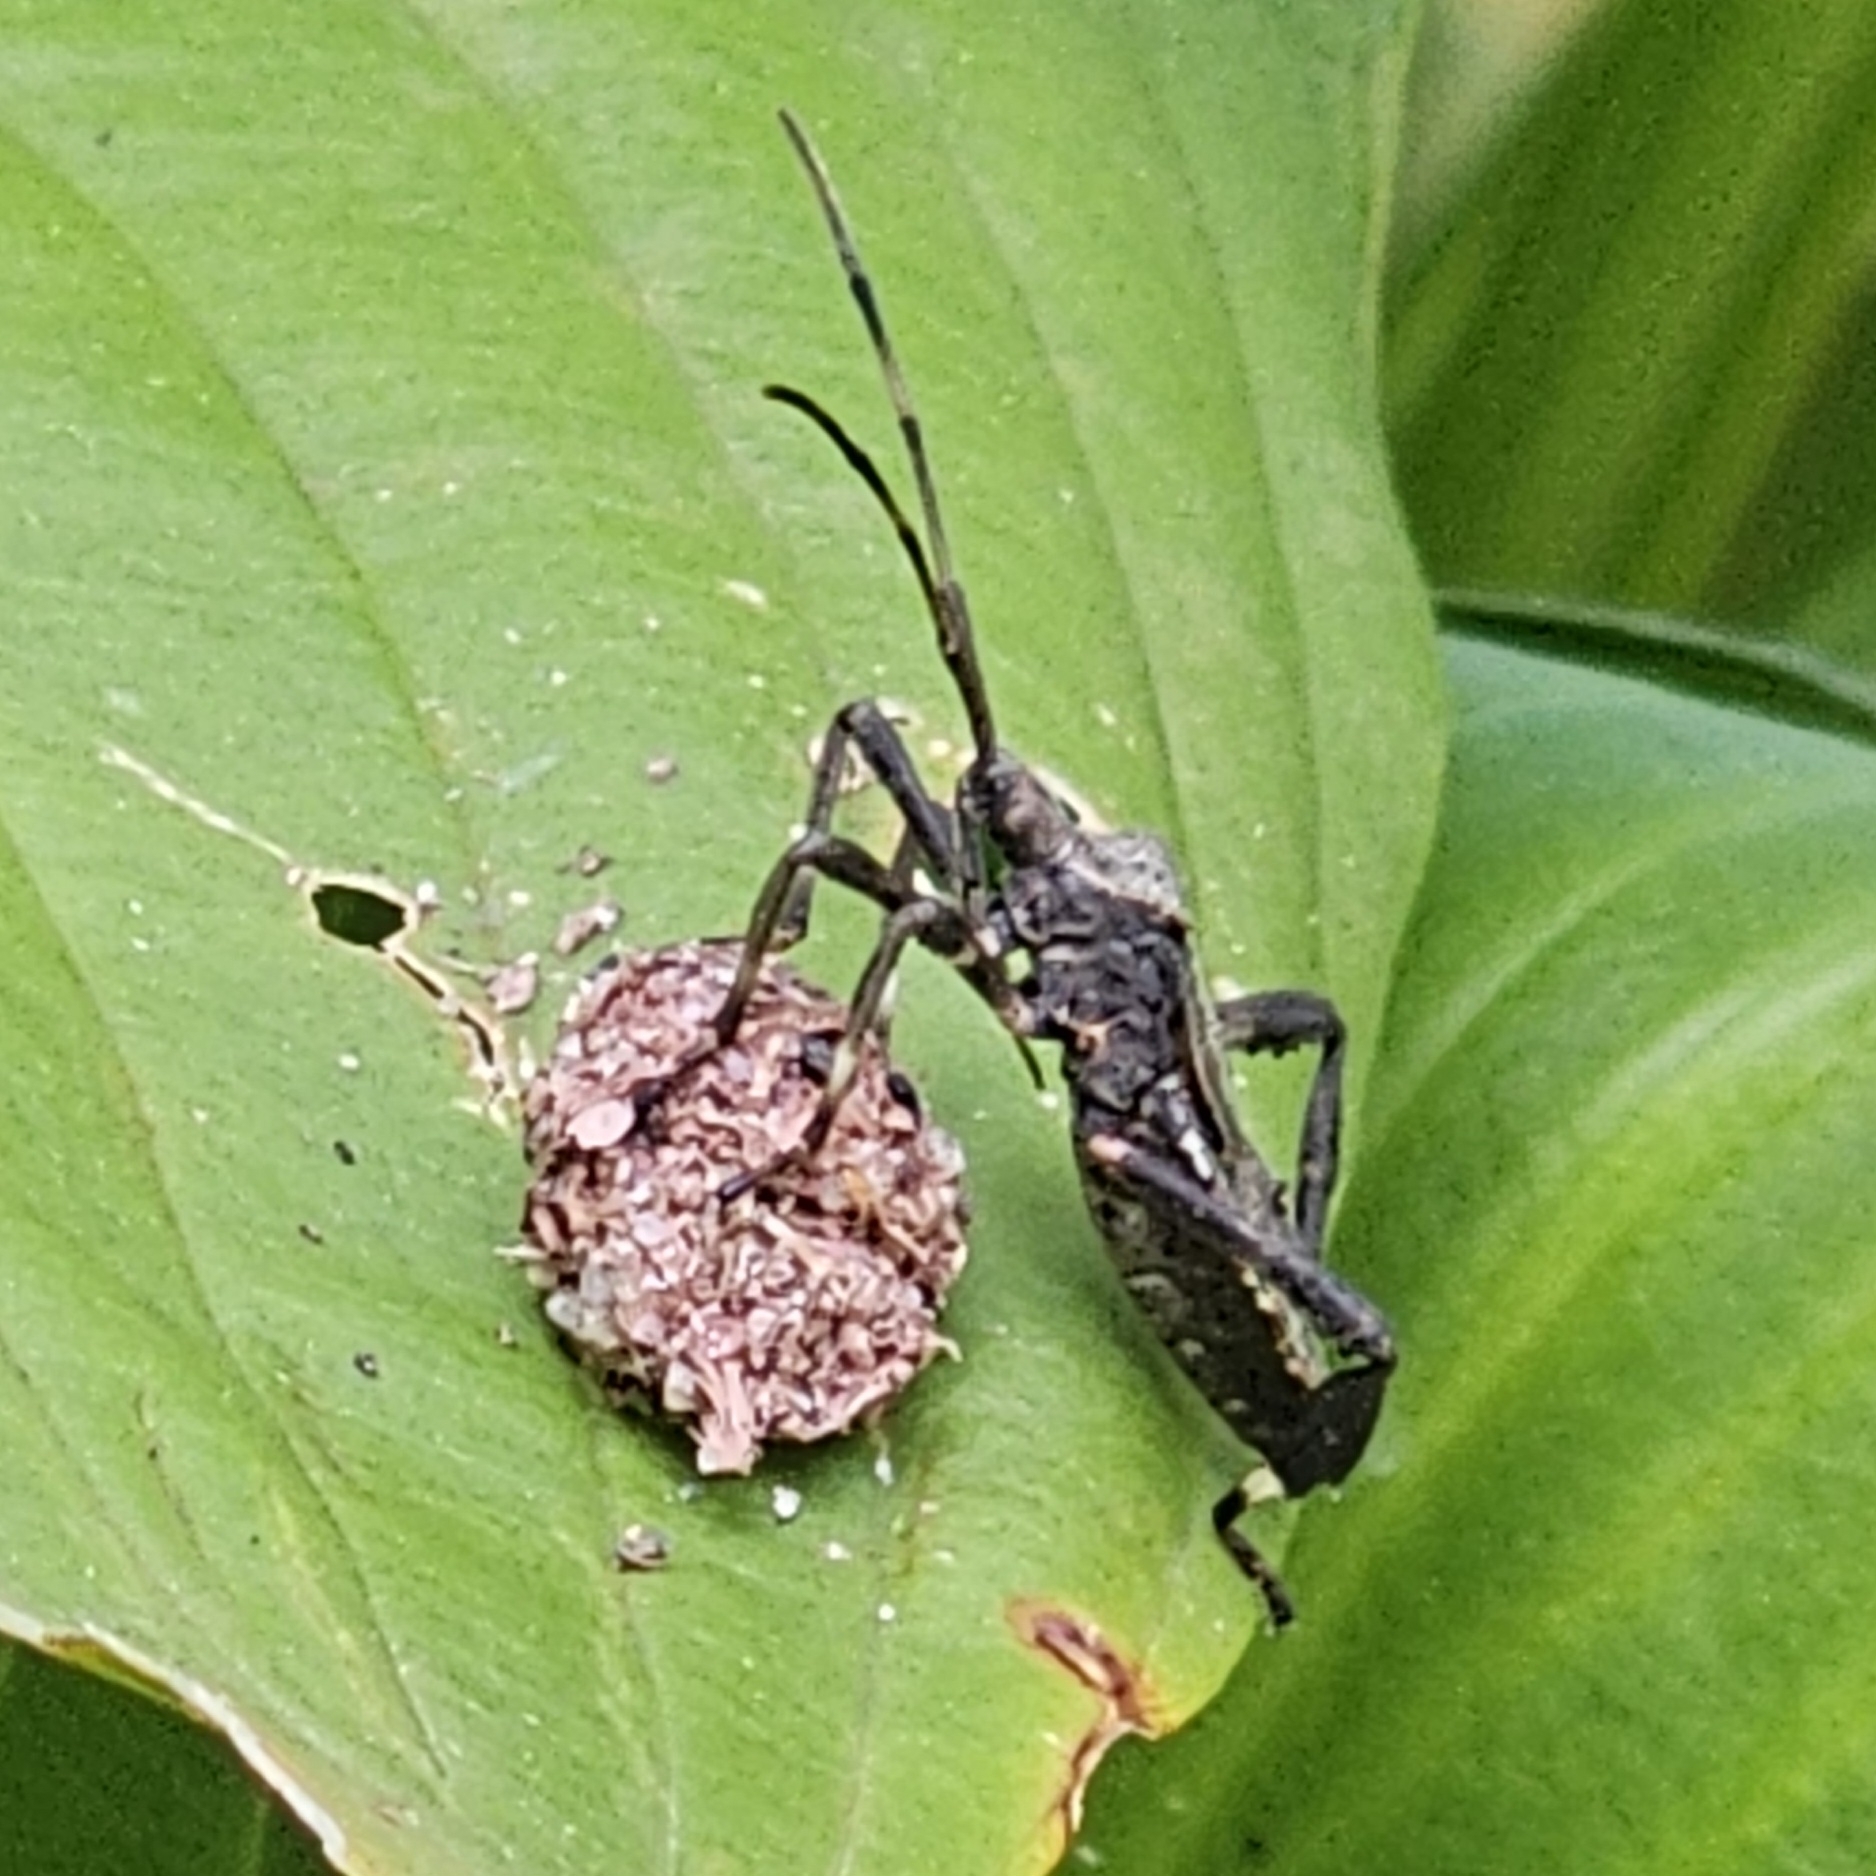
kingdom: Animalia
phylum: Arthropoda
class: Insecta
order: Hemiptera
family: Coreidae
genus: Acanthocephala
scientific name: Acanthocephala terminalis
